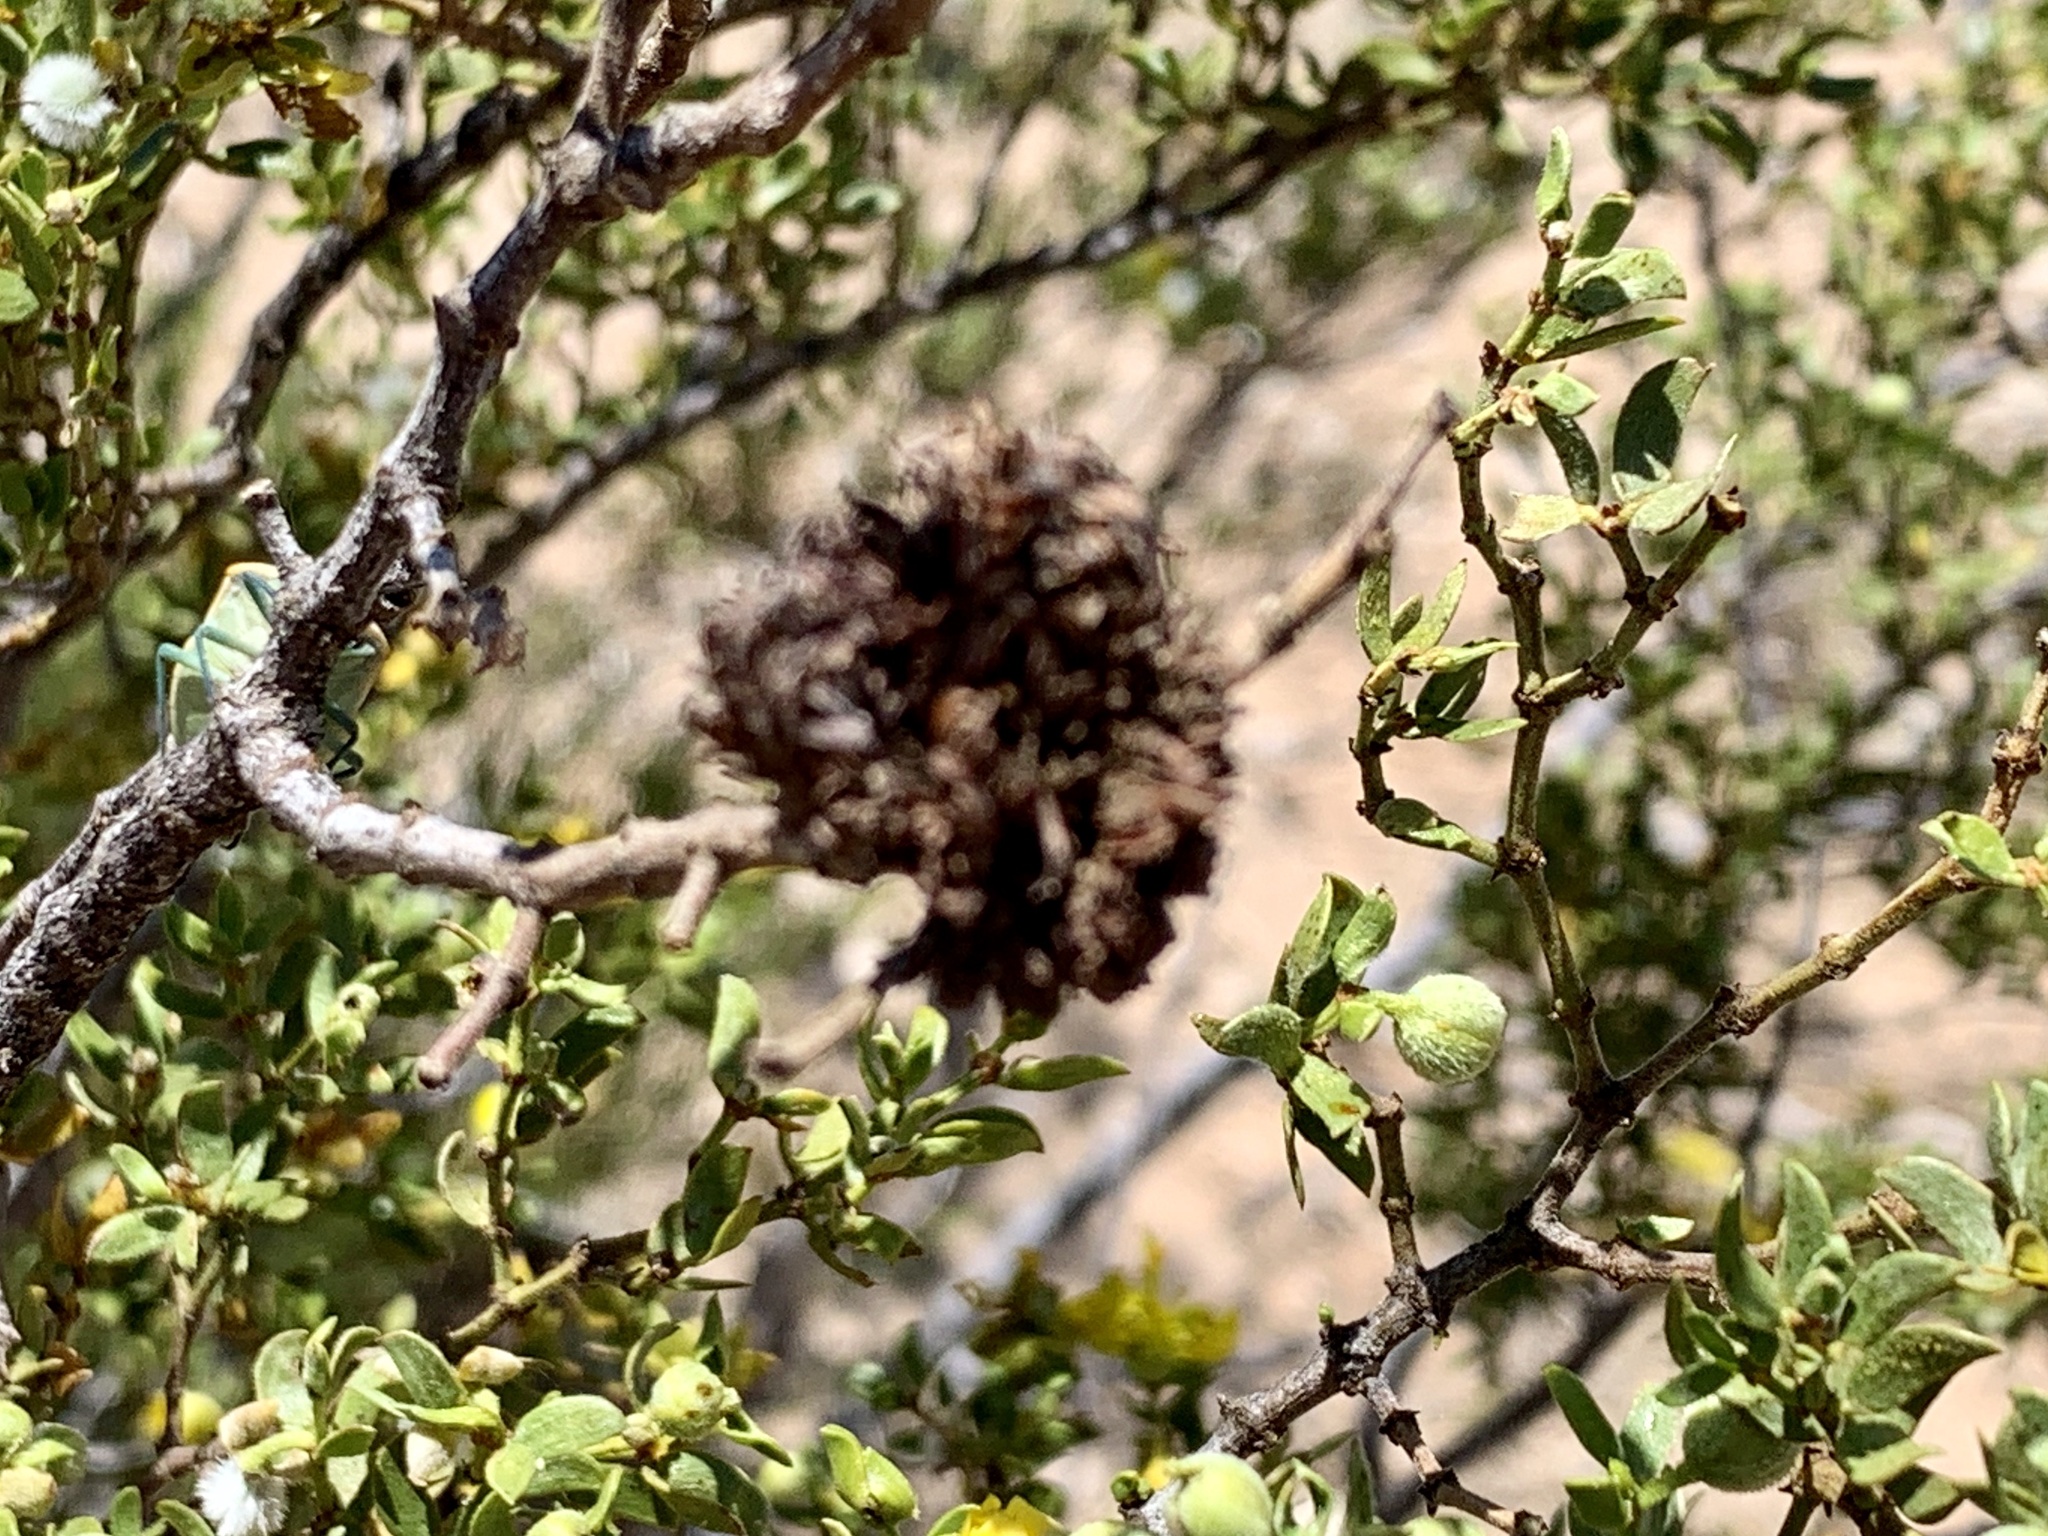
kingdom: Animalia
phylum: Arthropoda
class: Insecta
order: Diptera
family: Cecidomyiidae
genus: Asphondylia
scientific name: Asphondylia auripila
